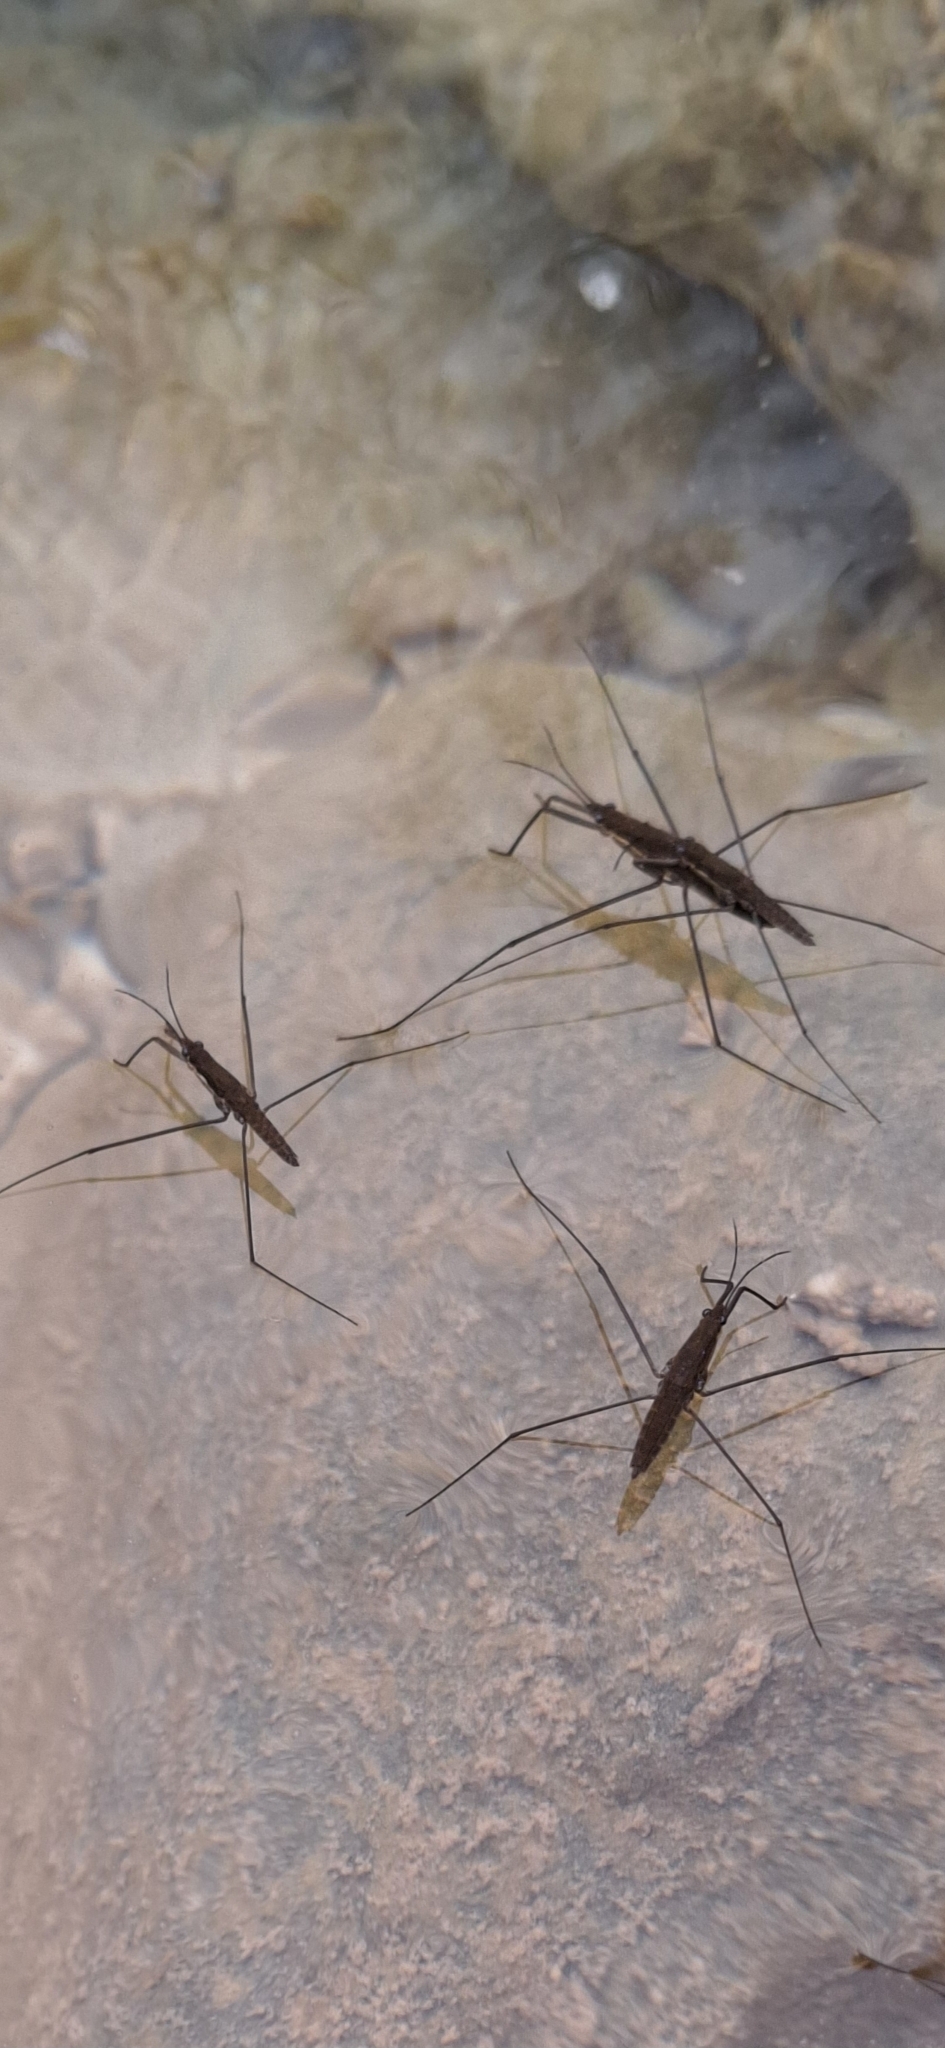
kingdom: Animalia
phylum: Arthropoda
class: Insecta
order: Hemiptera
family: Gerridae
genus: Aquarius
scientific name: Aquarius
